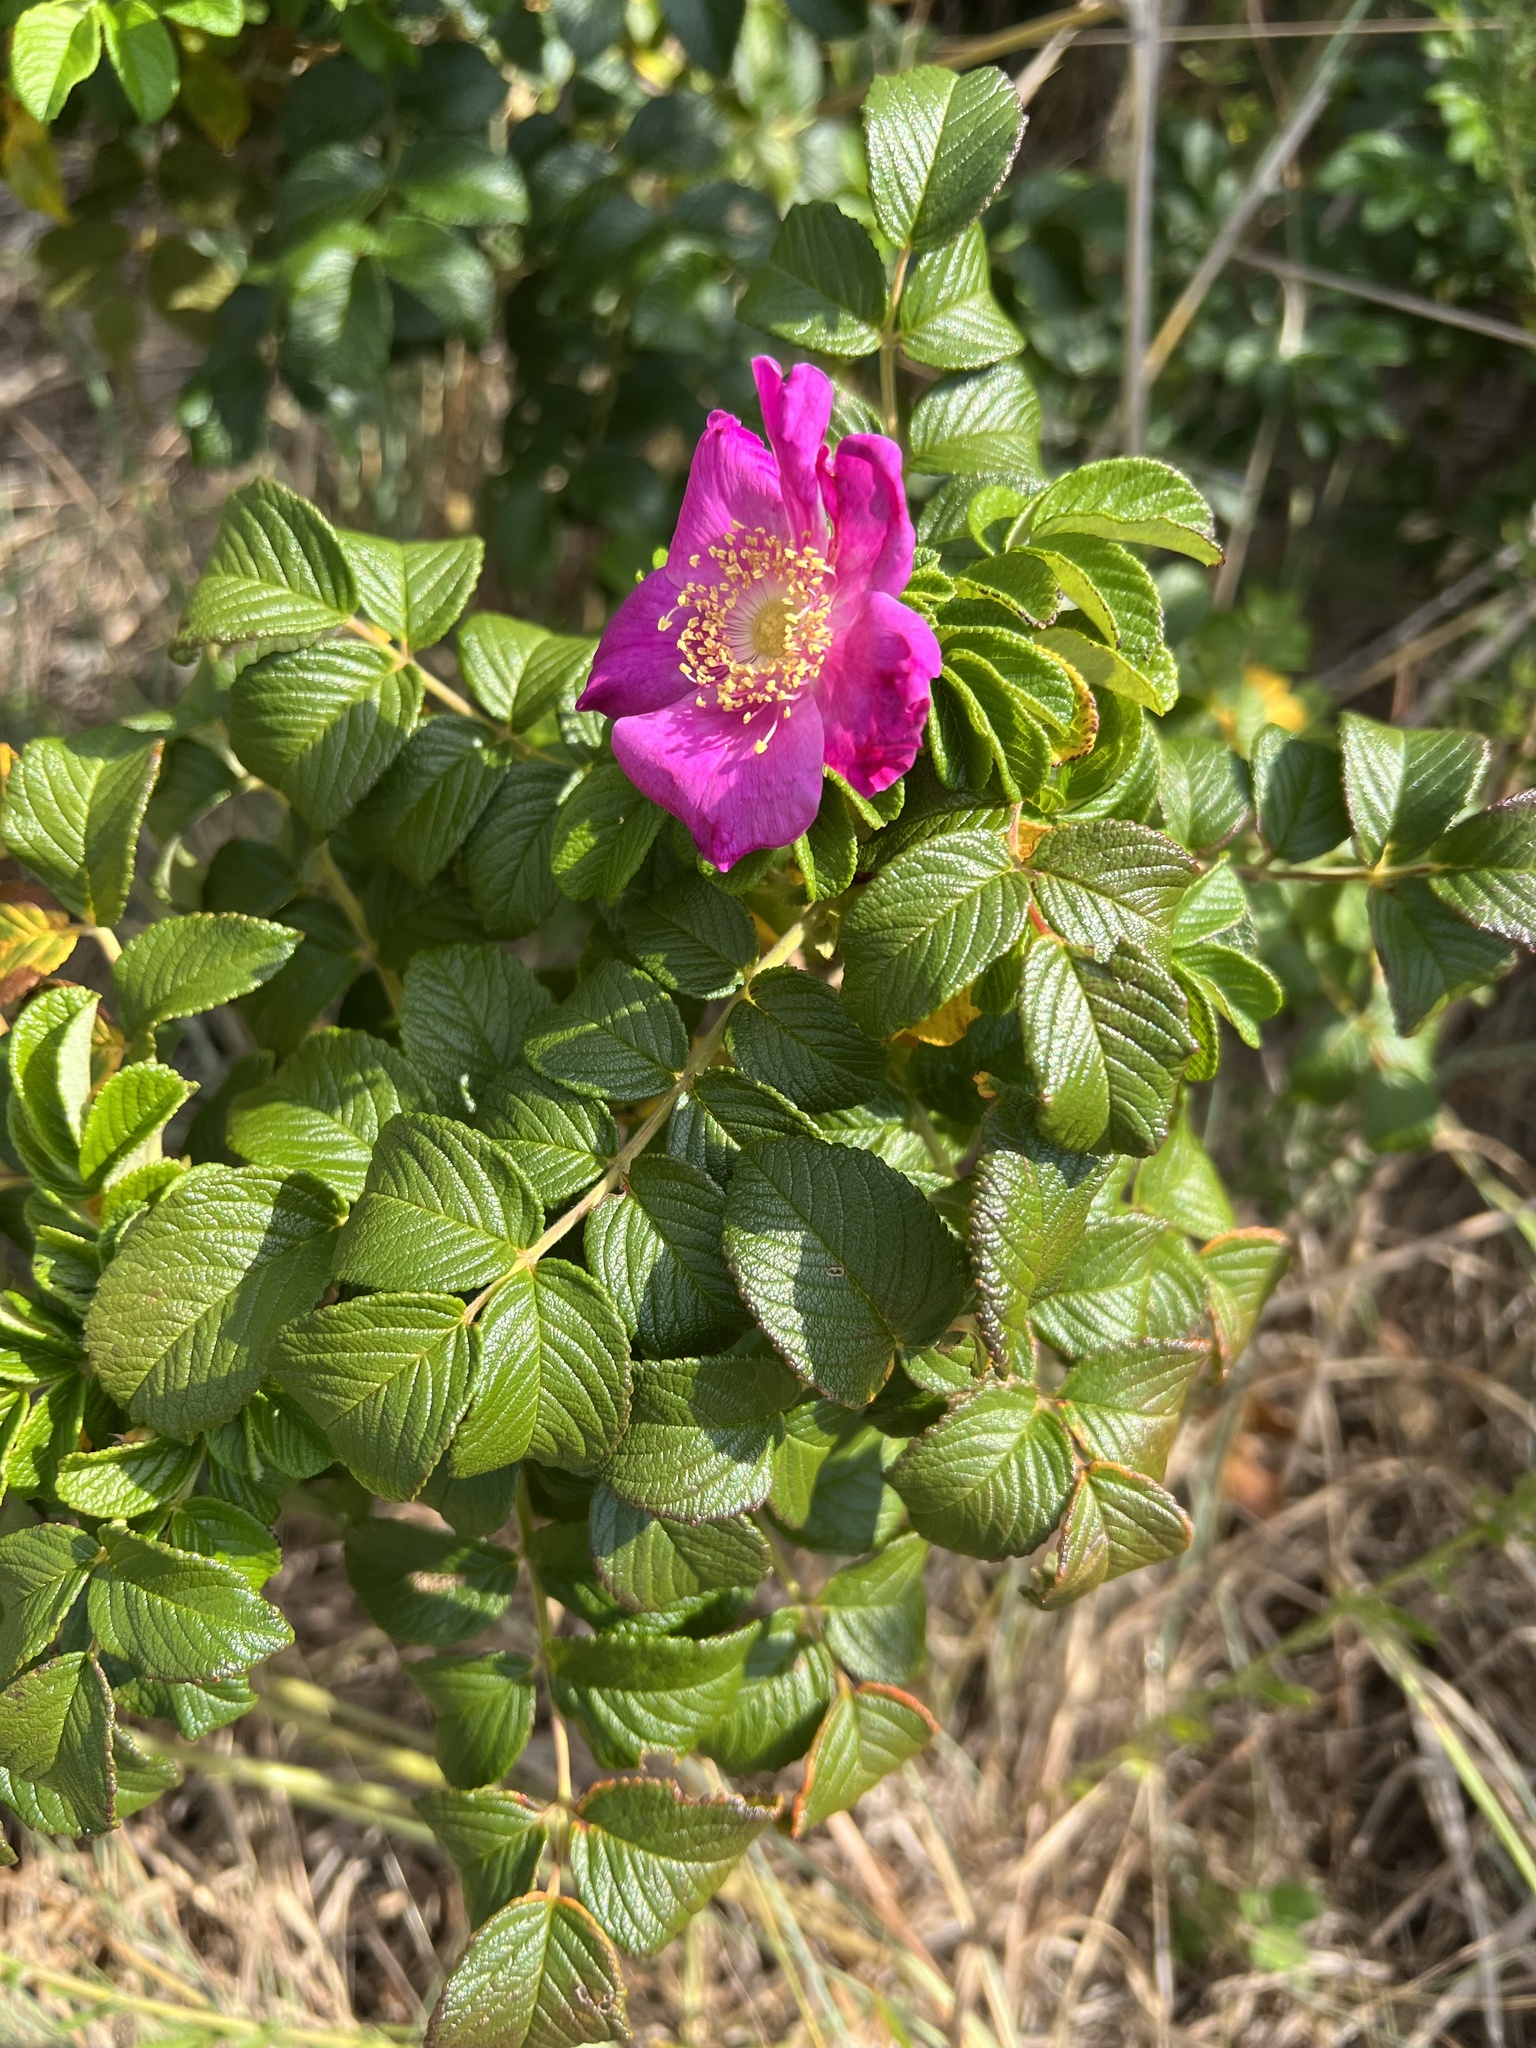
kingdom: Plantae
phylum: Tracheophyta
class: Magnoliopsida
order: Rosales
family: Rosaceae
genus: Rosa
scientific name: Rosa rugosa
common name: Japanese rose
